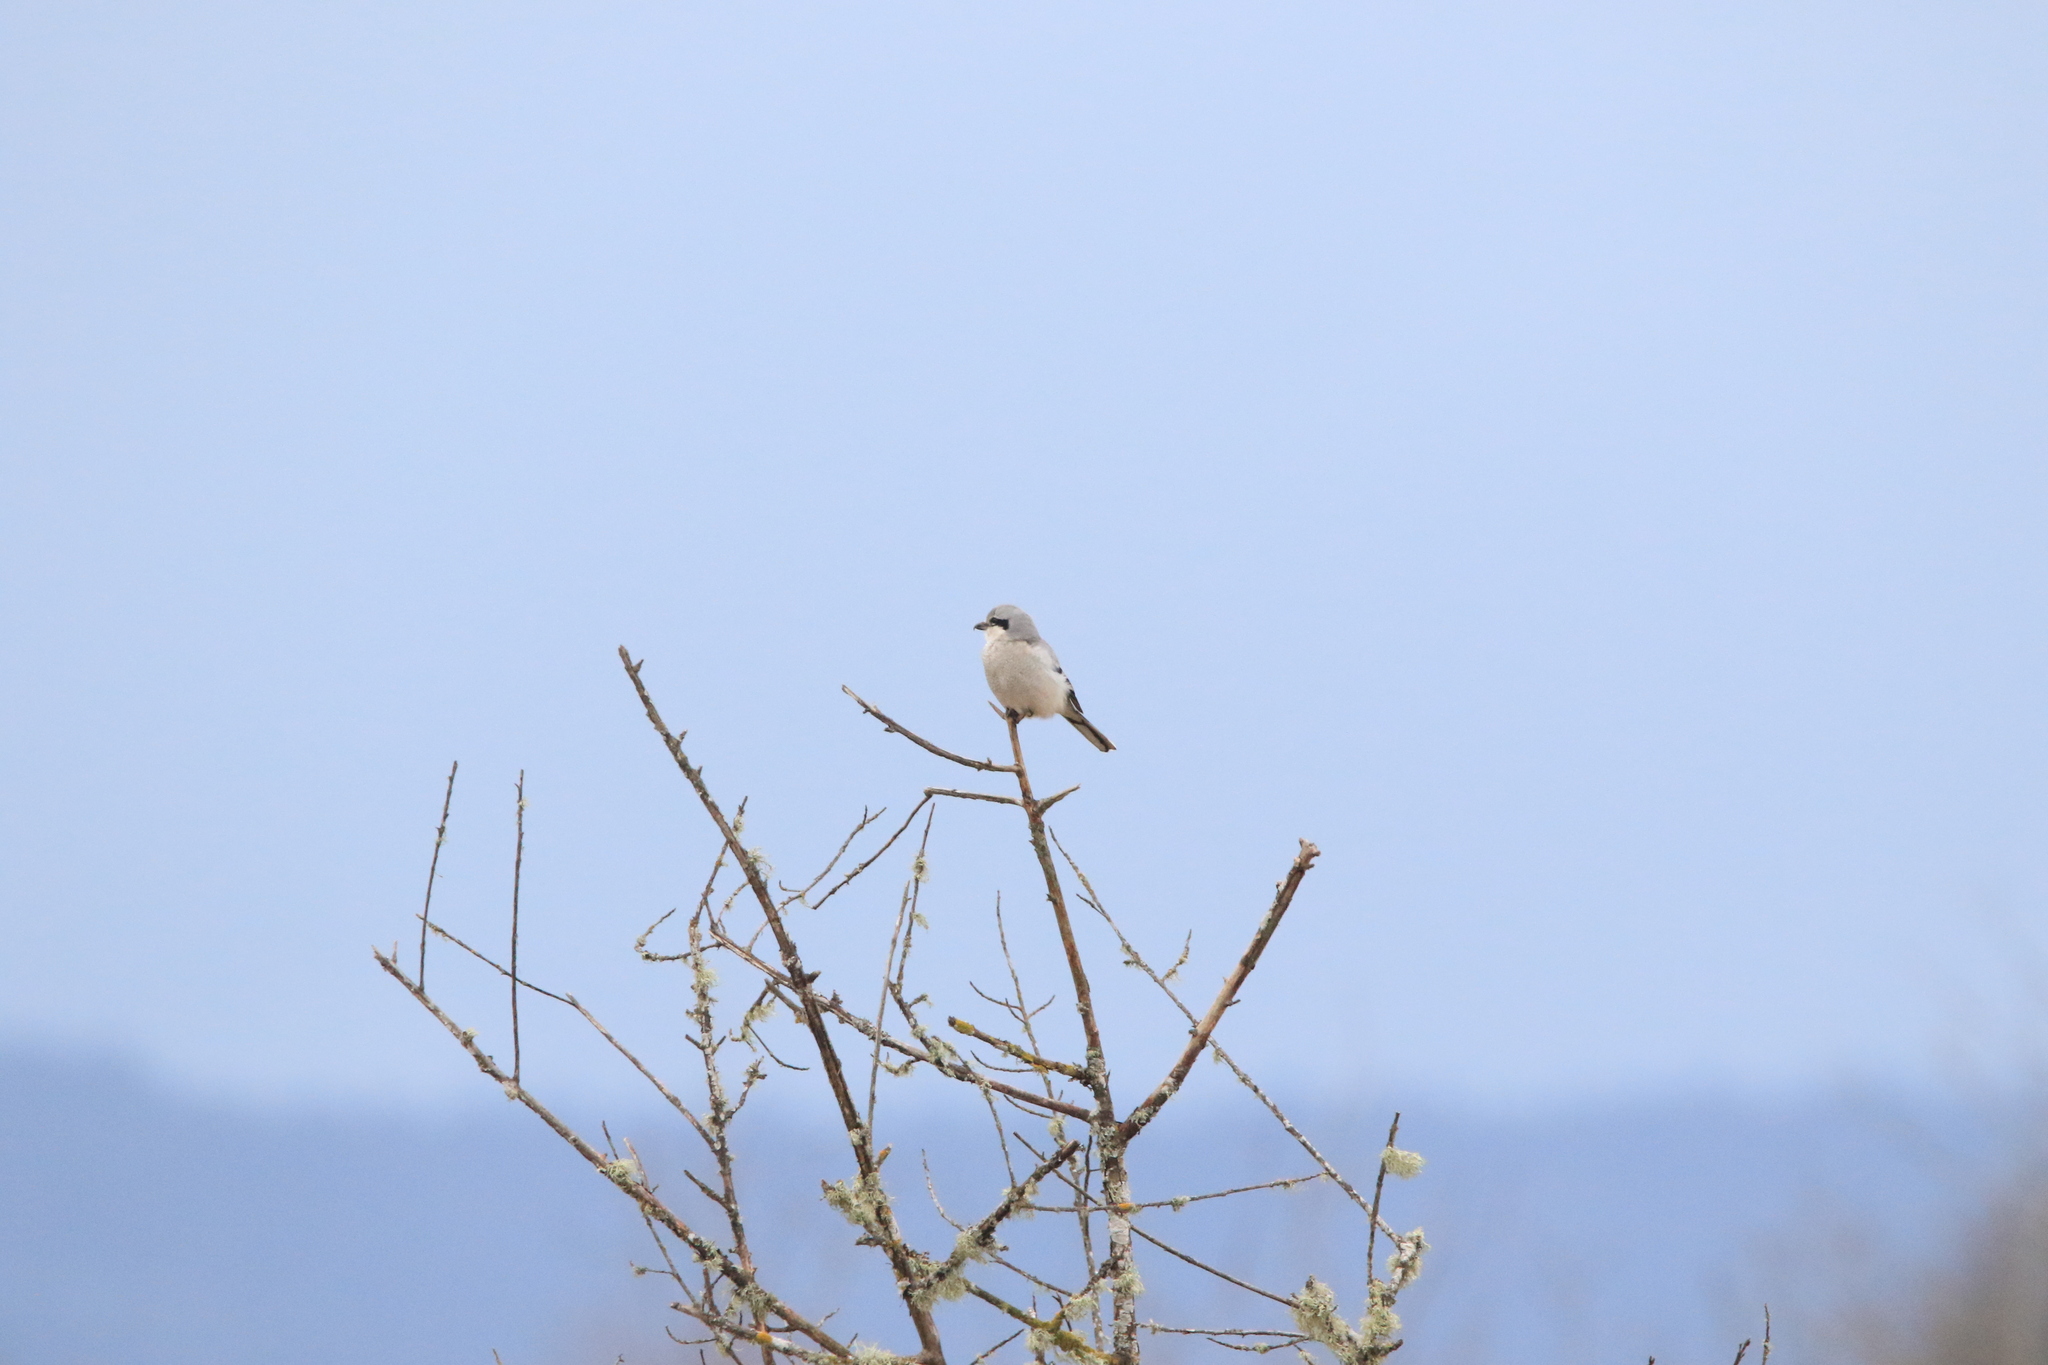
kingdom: Animalia
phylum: Chordata
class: Aves
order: Passeriformes
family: Laniidae
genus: Lanius
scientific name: Lanius borealis
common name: Northern shrike
